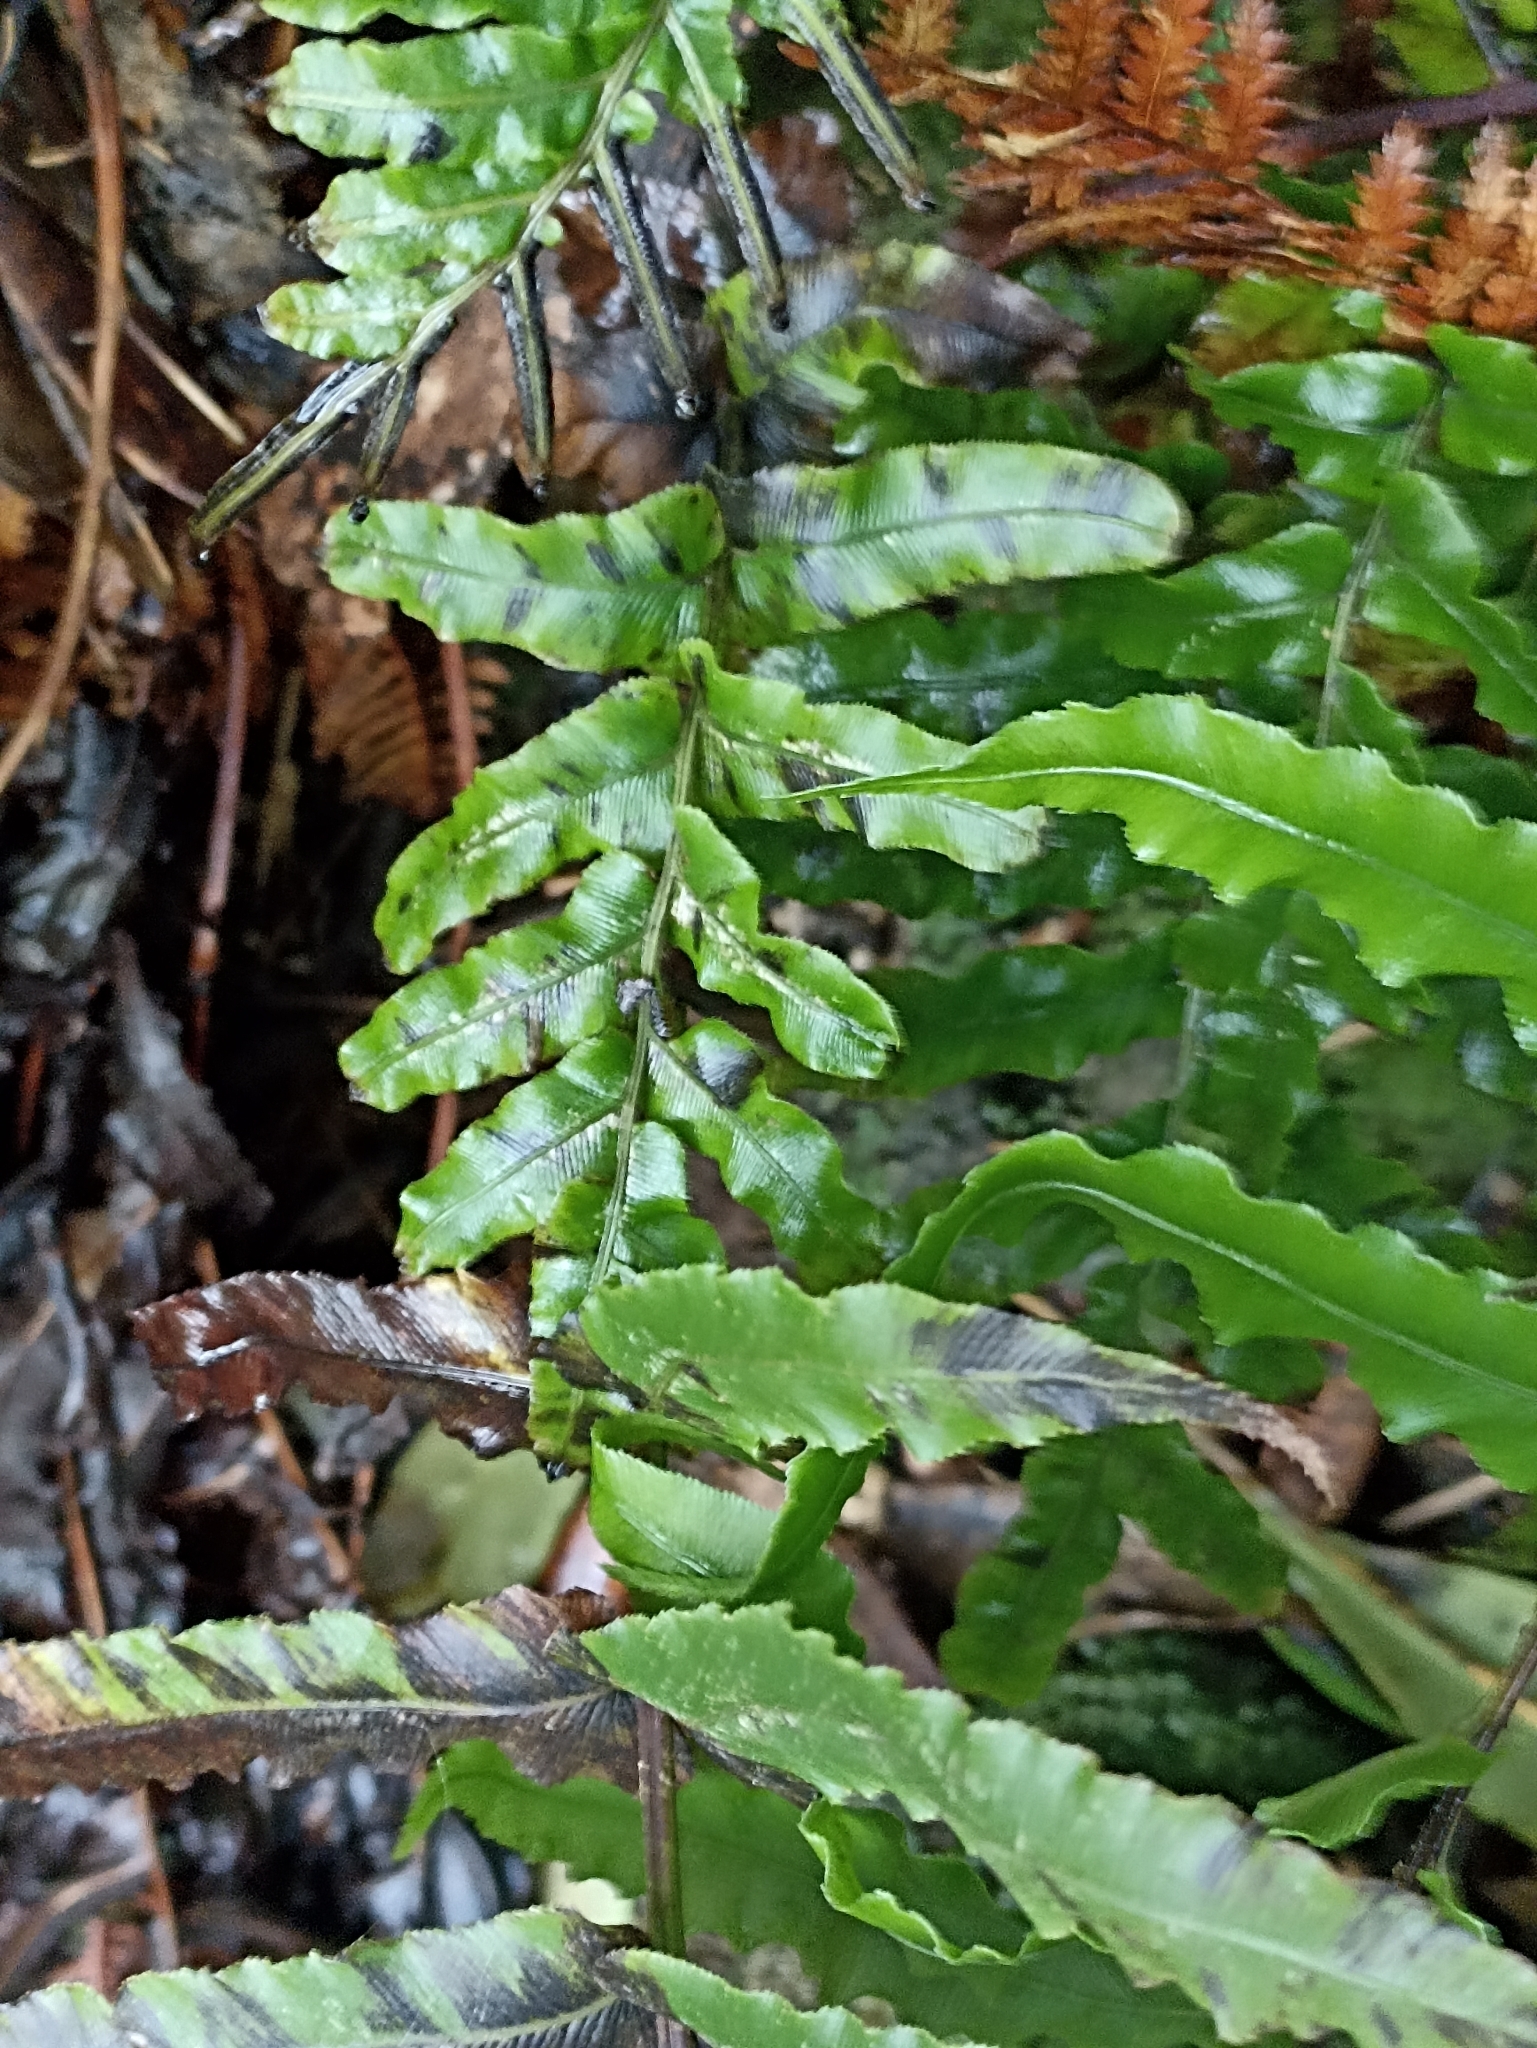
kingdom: Plantae
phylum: Tracheophyta
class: Polypodiopsida
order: Polypodiales
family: Blechnaceae
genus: Parablechnum
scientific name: Parablechnum novae-zelandiae
